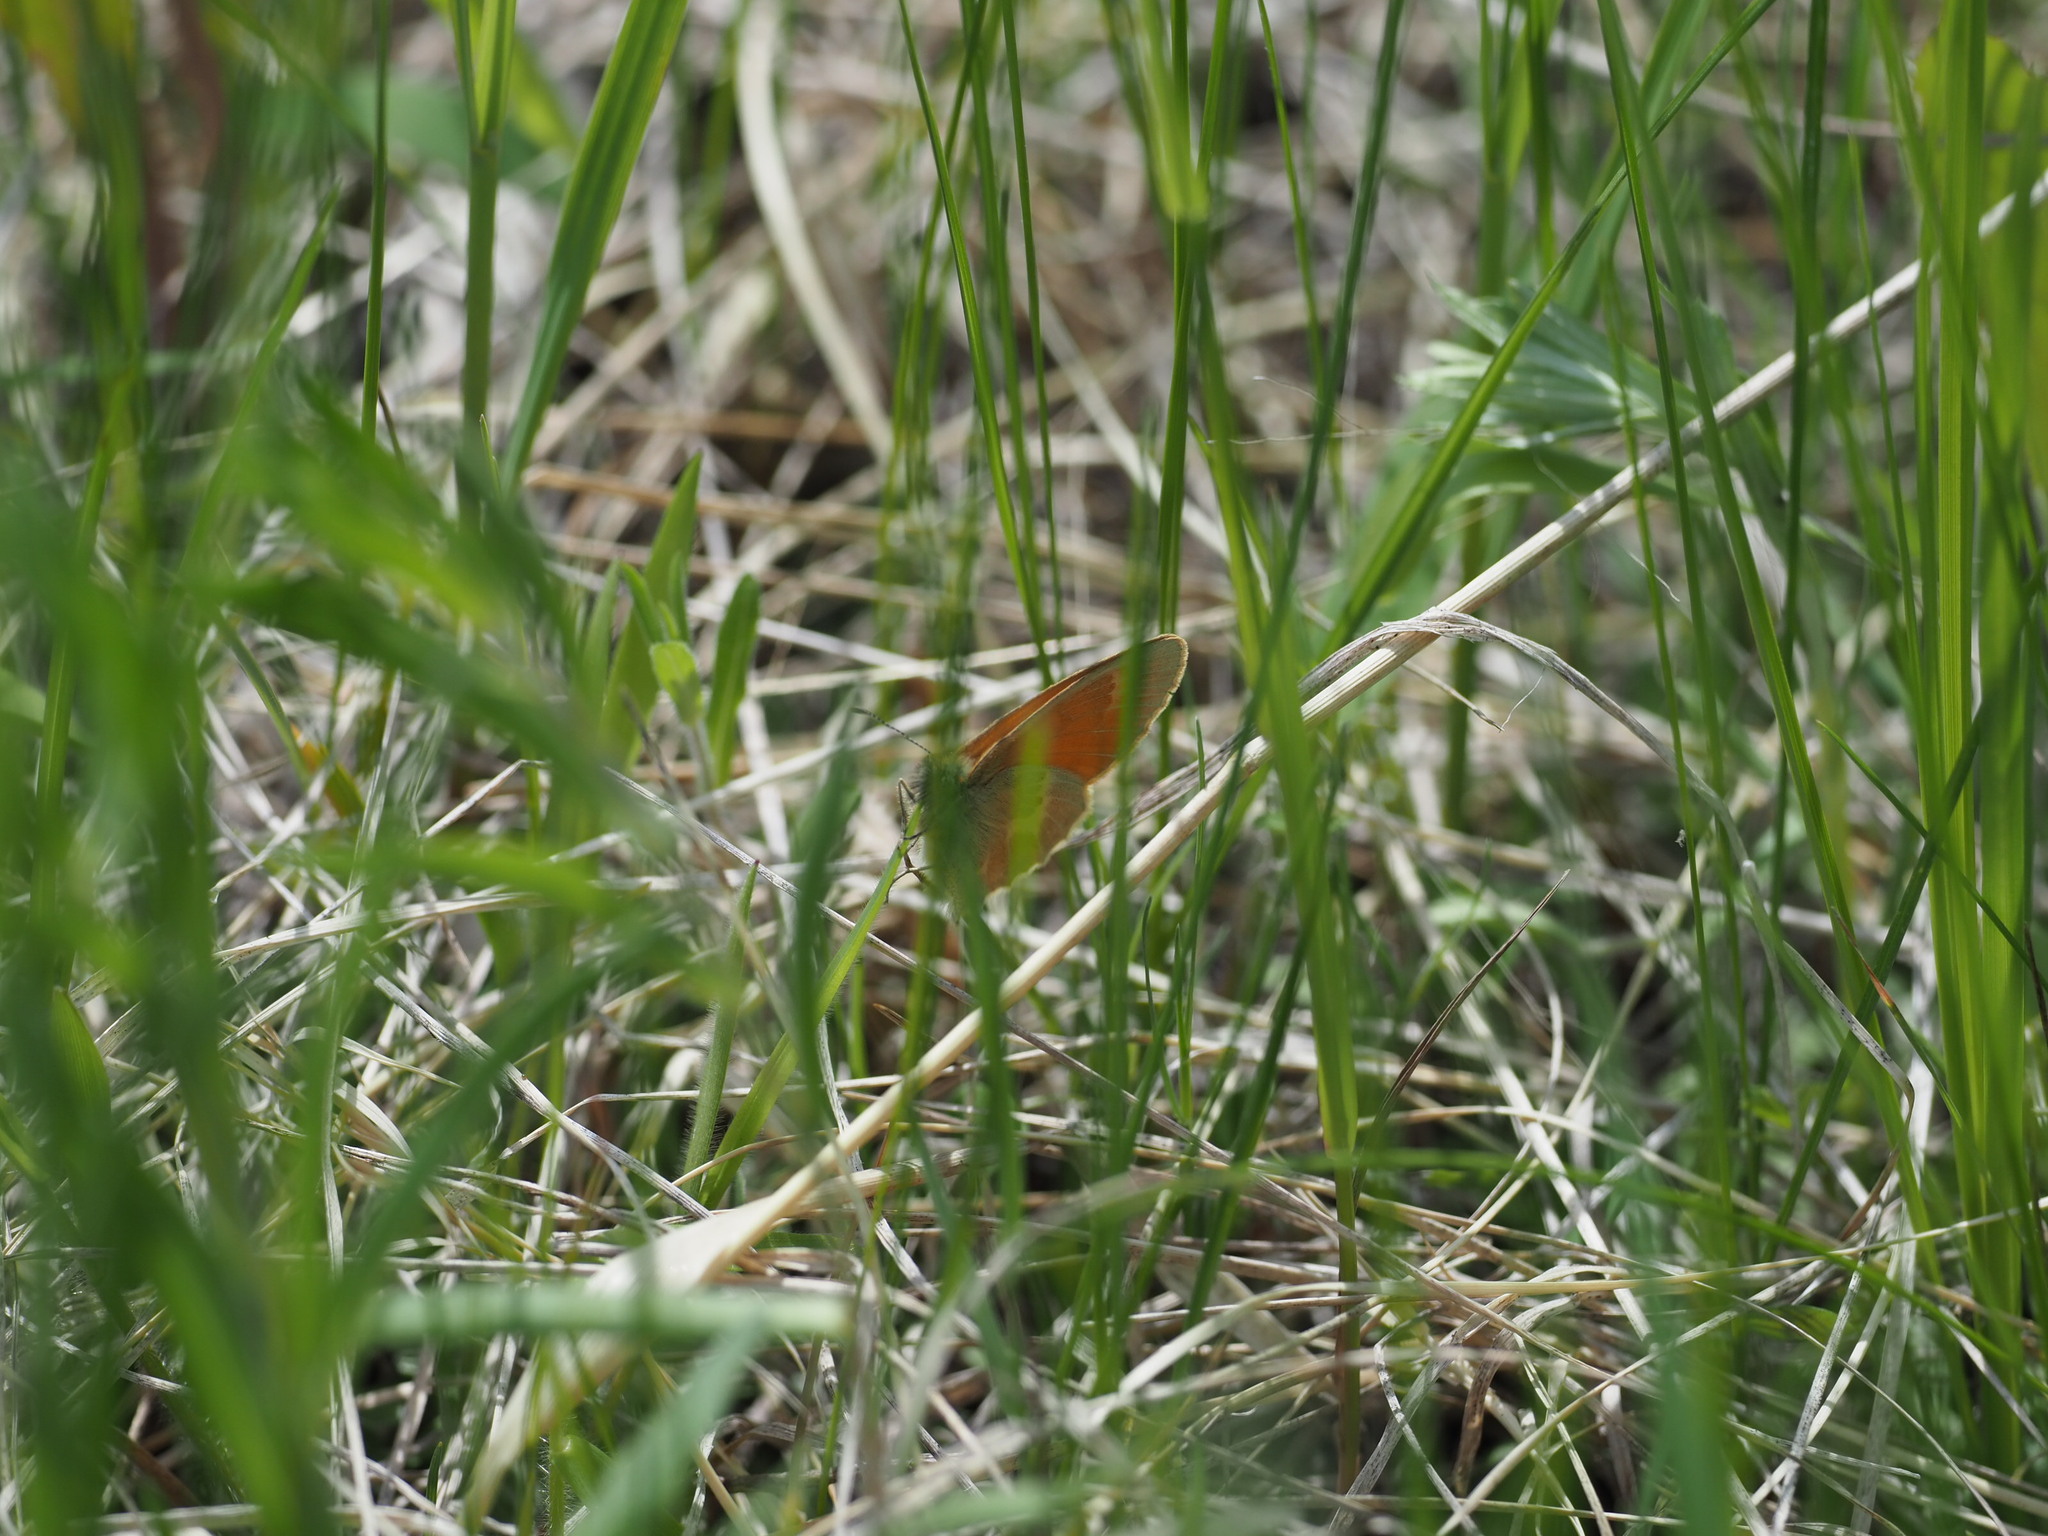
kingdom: Animalia
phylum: Arthropoda
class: Insecta
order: Lepidoptera
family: Nymphalidae
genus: Coenonympha
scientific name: Coenonympha california
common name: Common ringlet
